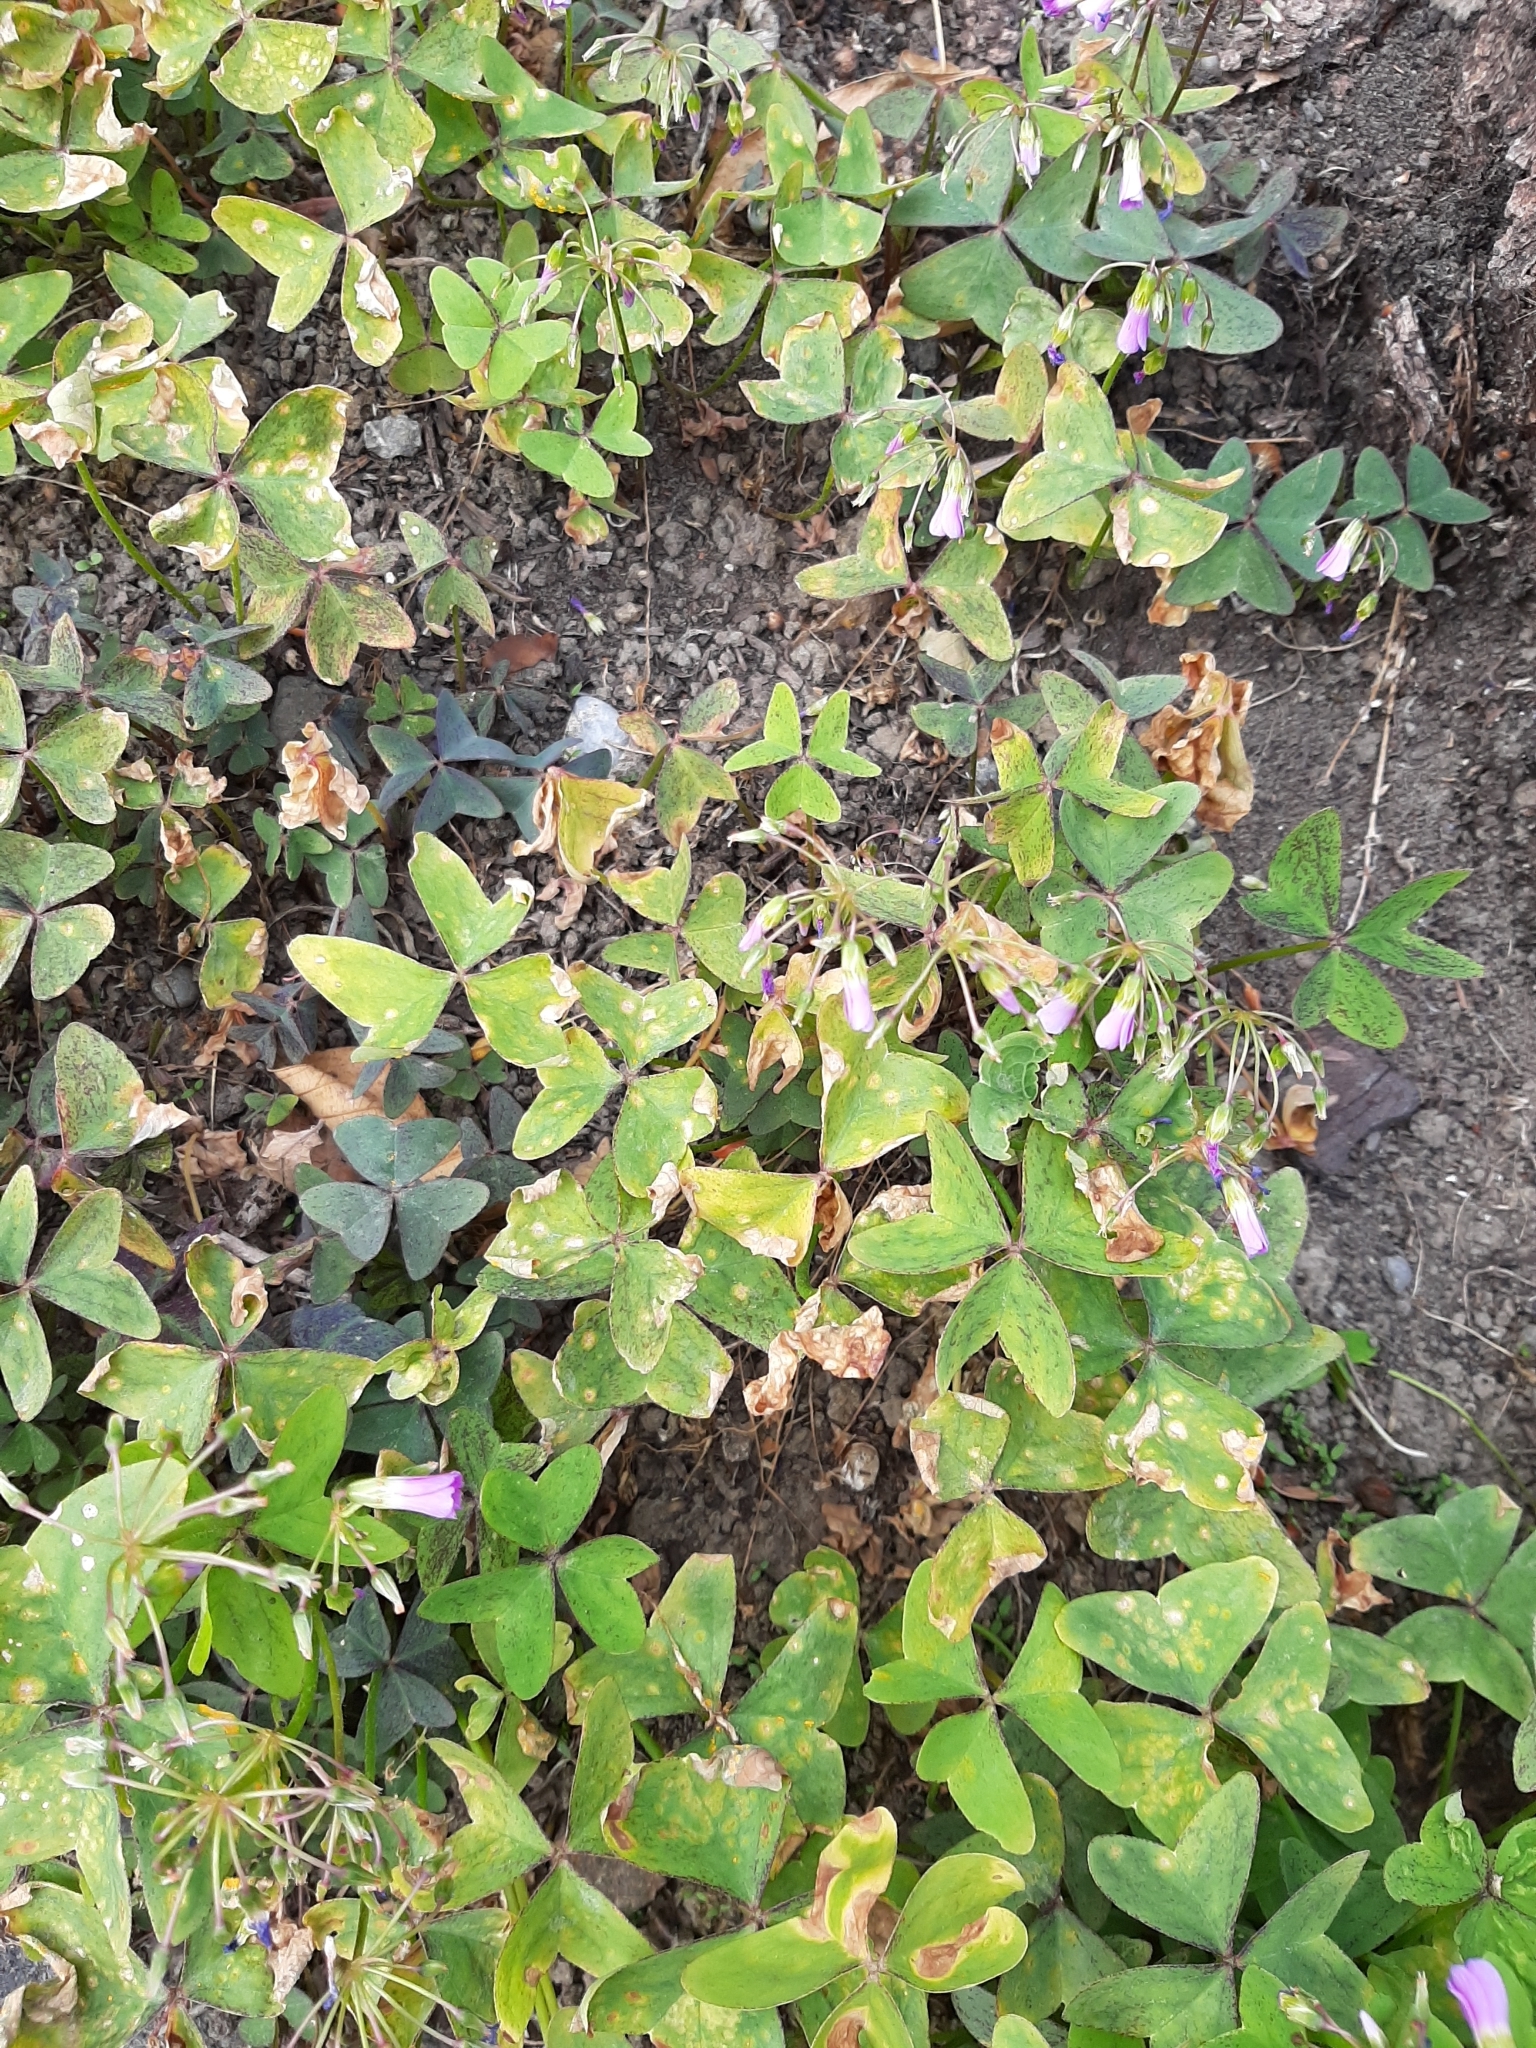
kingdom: Plantae
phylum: Tracheophyta
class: Magnoliopsida
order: Oxalidales
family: Oxalidaceae
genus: Oxalis
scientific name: Oxalis latifolia
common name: Garden pink-sorrel
